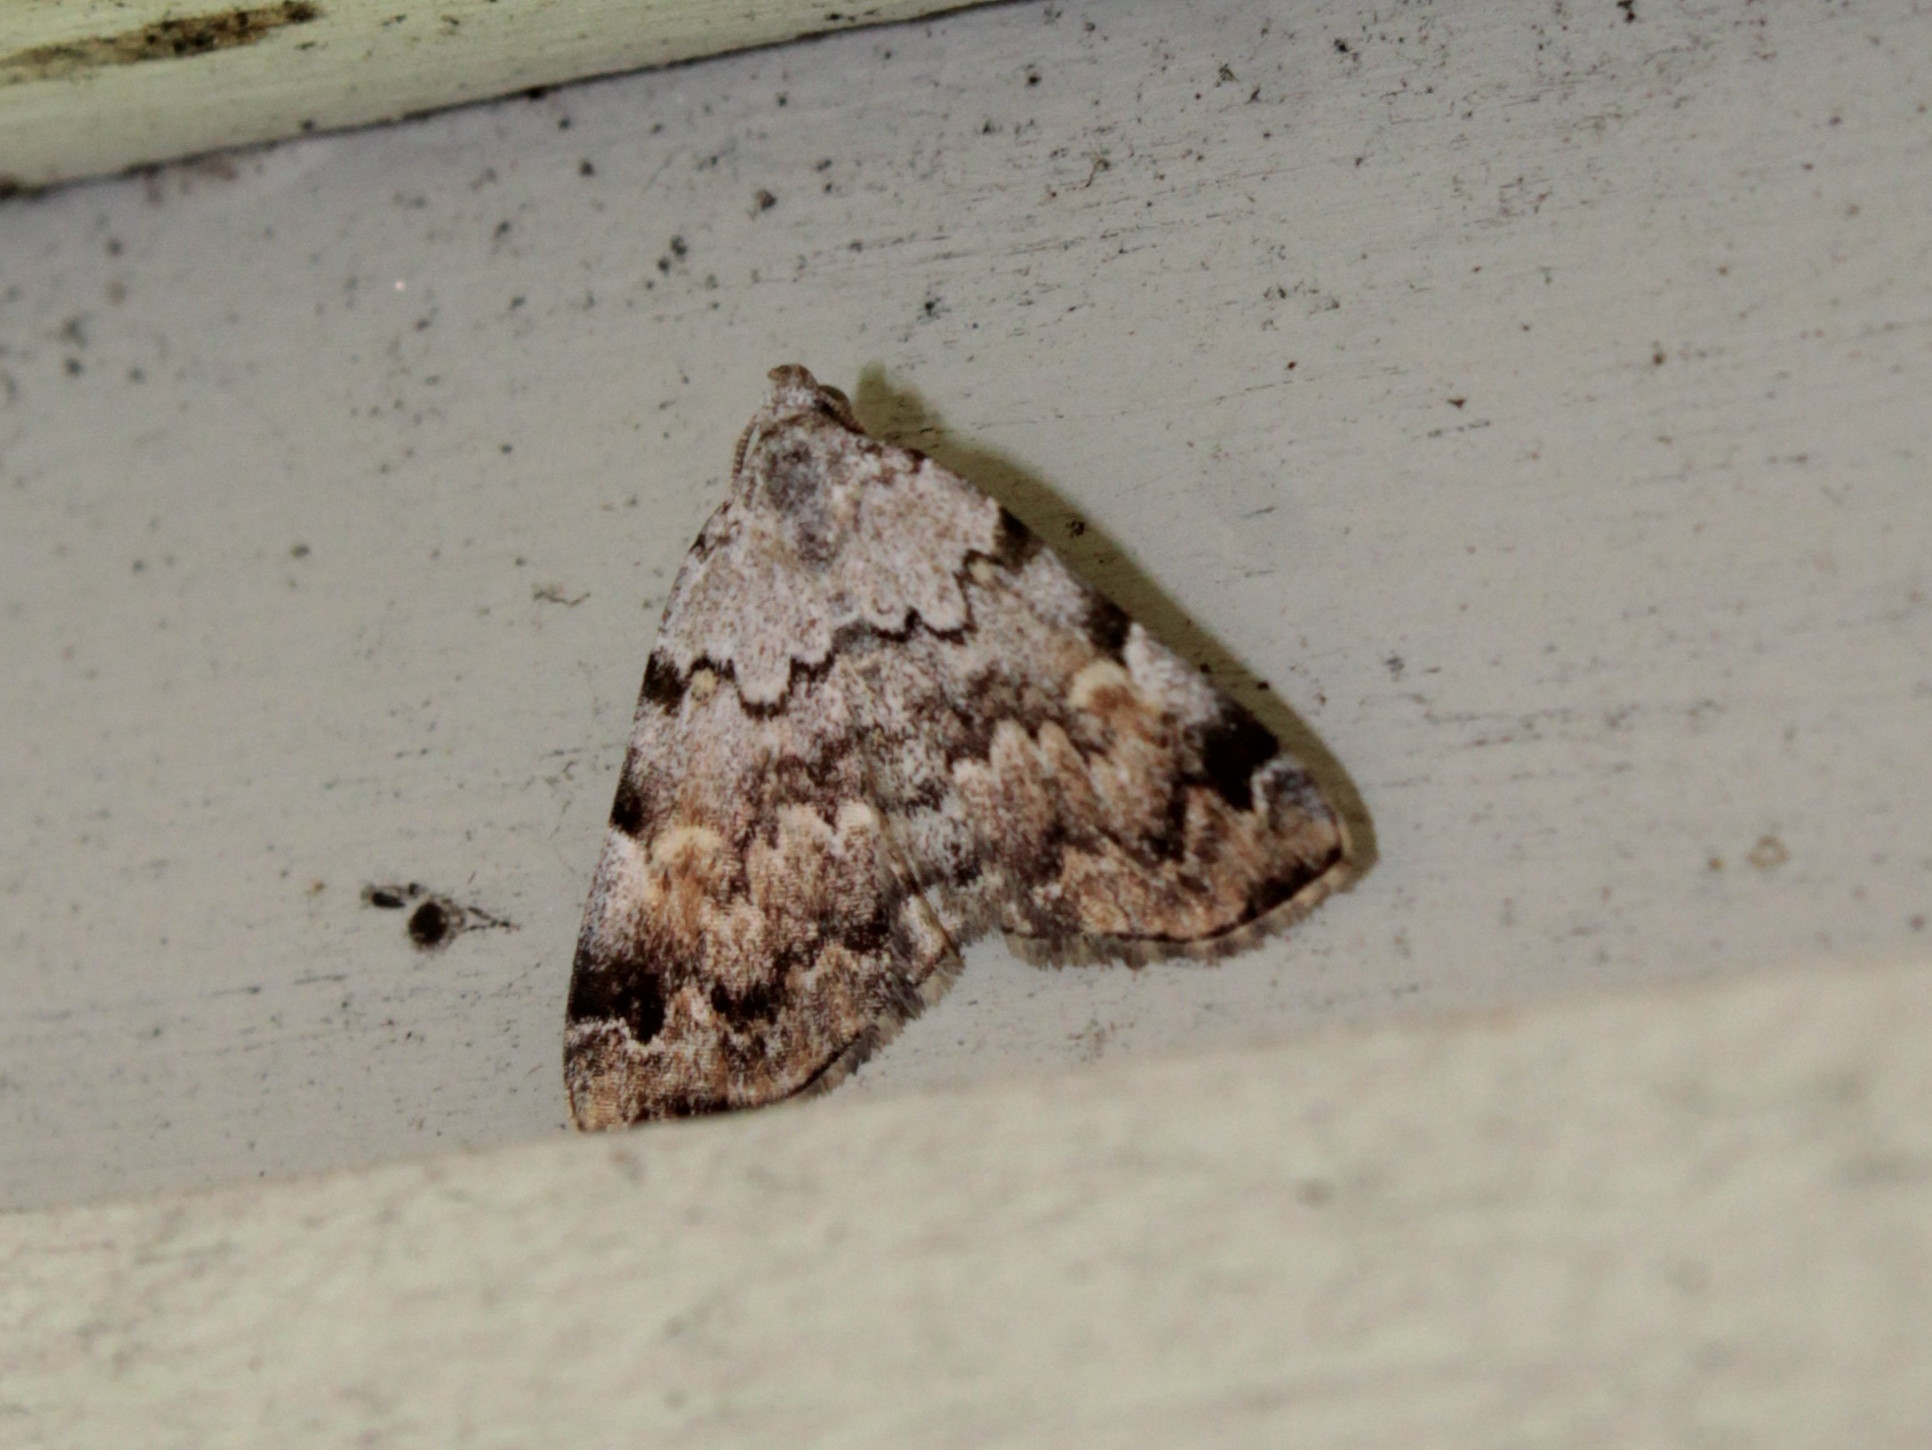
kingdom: Animalia
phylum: Arthropoda
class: Insecta
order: Lepidoptera
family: Erebidae
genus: Idia
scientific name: Idia americalis
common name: American idia moth
